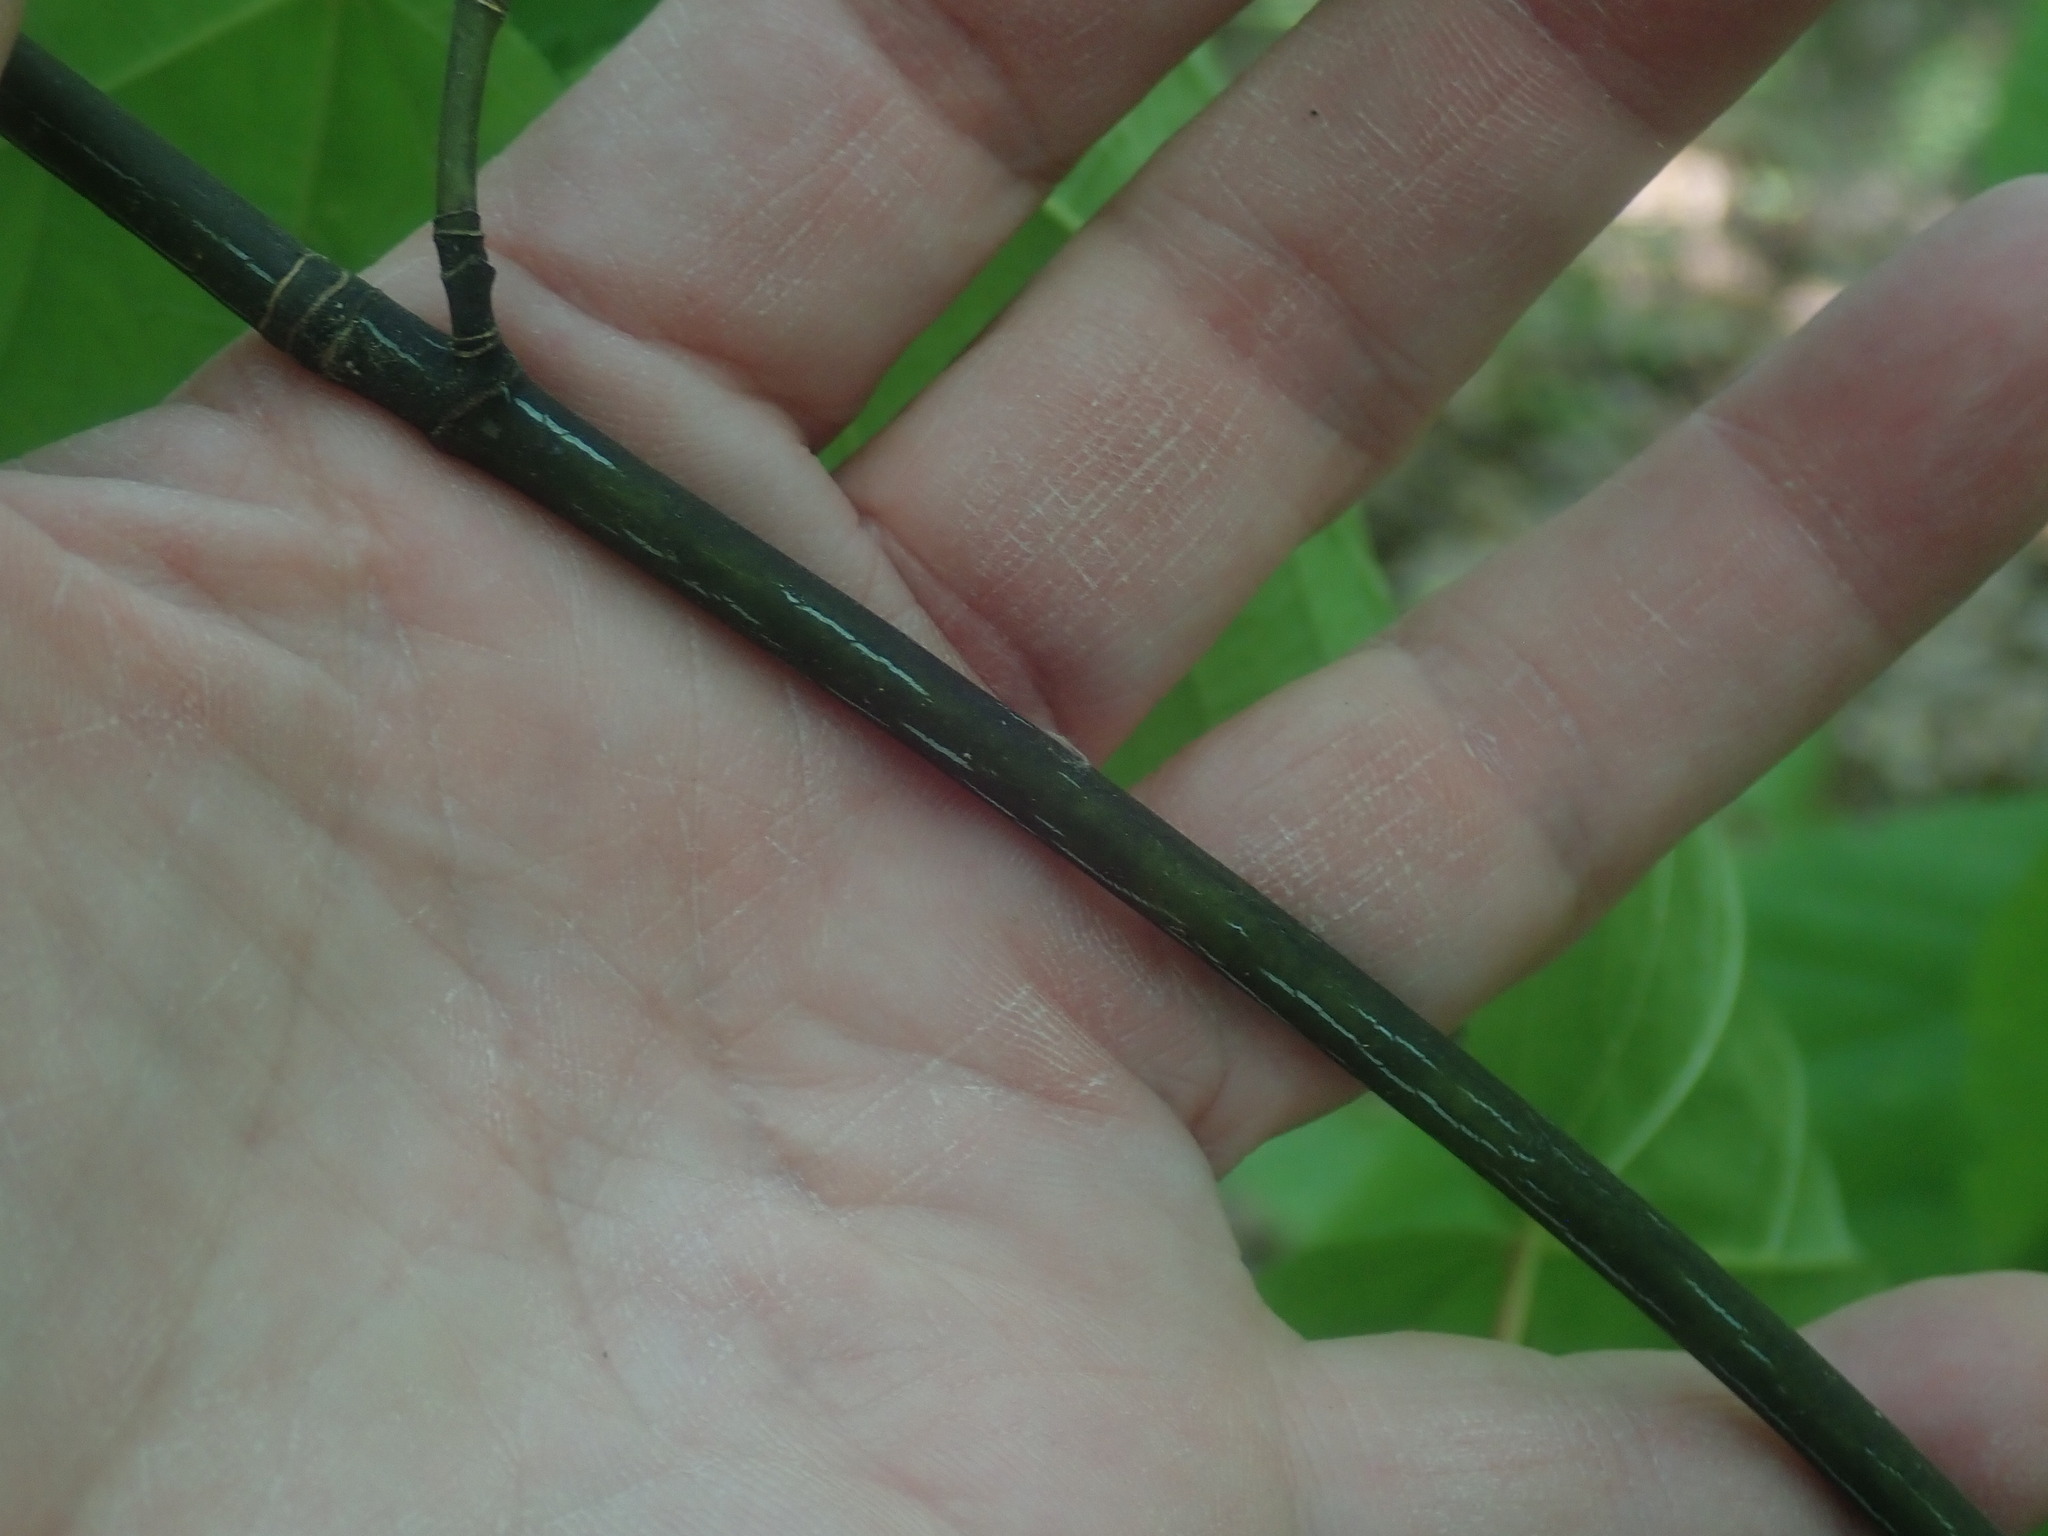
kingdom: Plantae
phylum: Tracheophyta
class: Magnoliopsida
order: Sapindales
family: Sapindaceae
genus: Acer
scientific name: Acer pensylvanicum
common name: Moosewood
